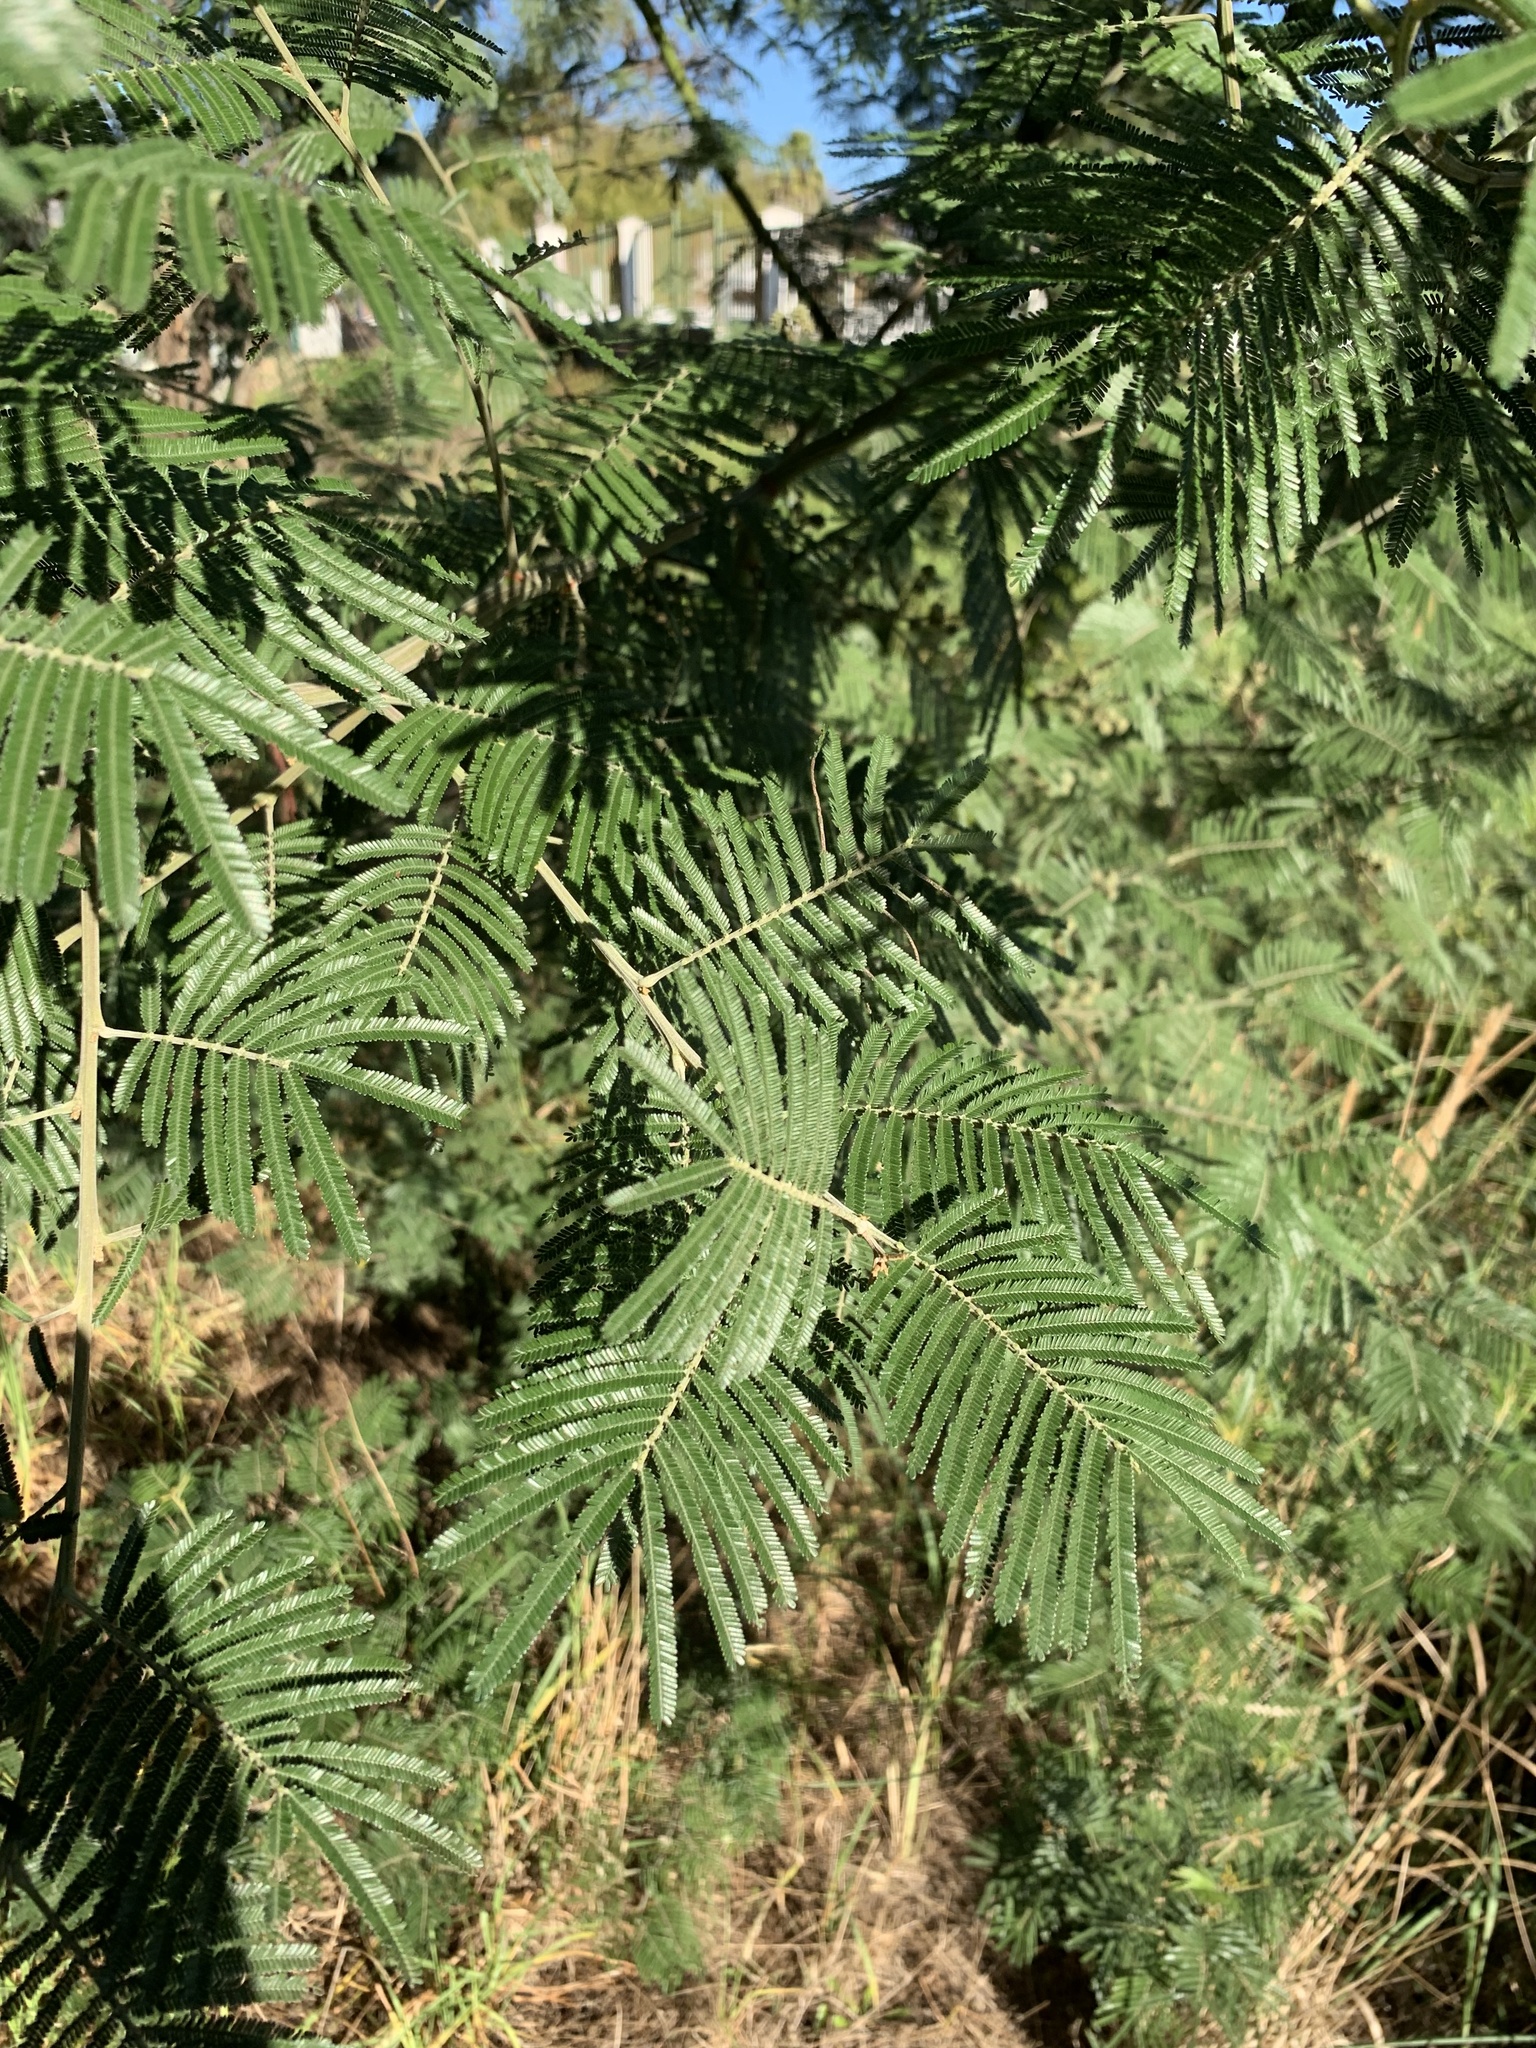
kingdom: Plantae
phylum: Tracheophyta
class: Magnoliopsida
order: Fabales
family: Fabaceae
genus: Acacia
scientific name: Acacia mearnsii
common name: Black wattle
